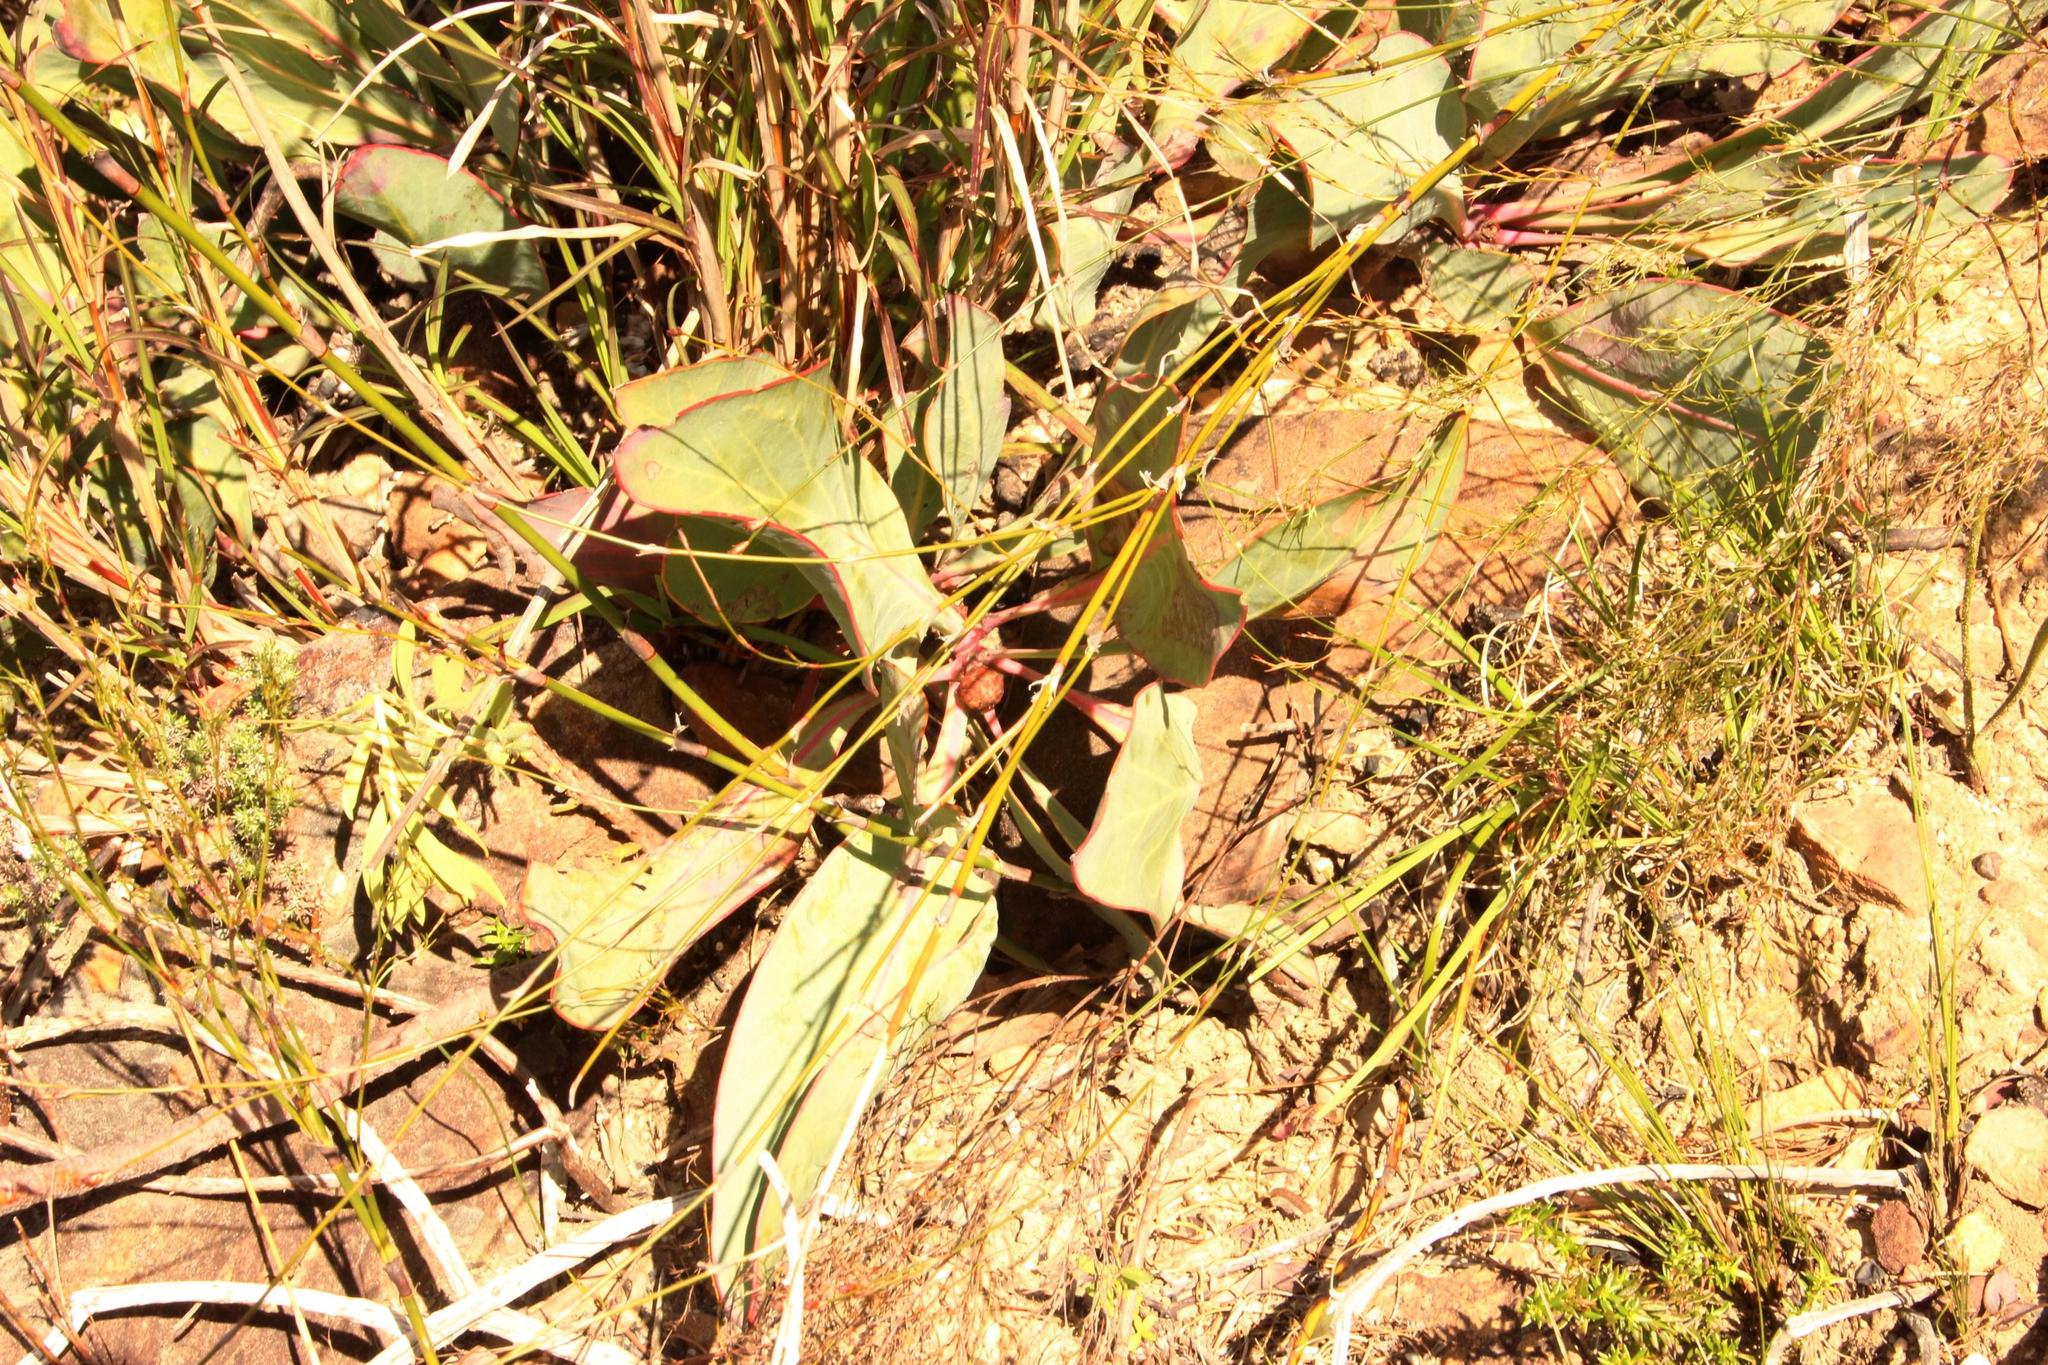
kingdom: Plantae
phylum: Tracheophyta
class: Magnoliopsida
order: Proteales
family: Proteaceae
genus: Protea
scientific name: Protea acaulos
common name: Common ground sugarbush
